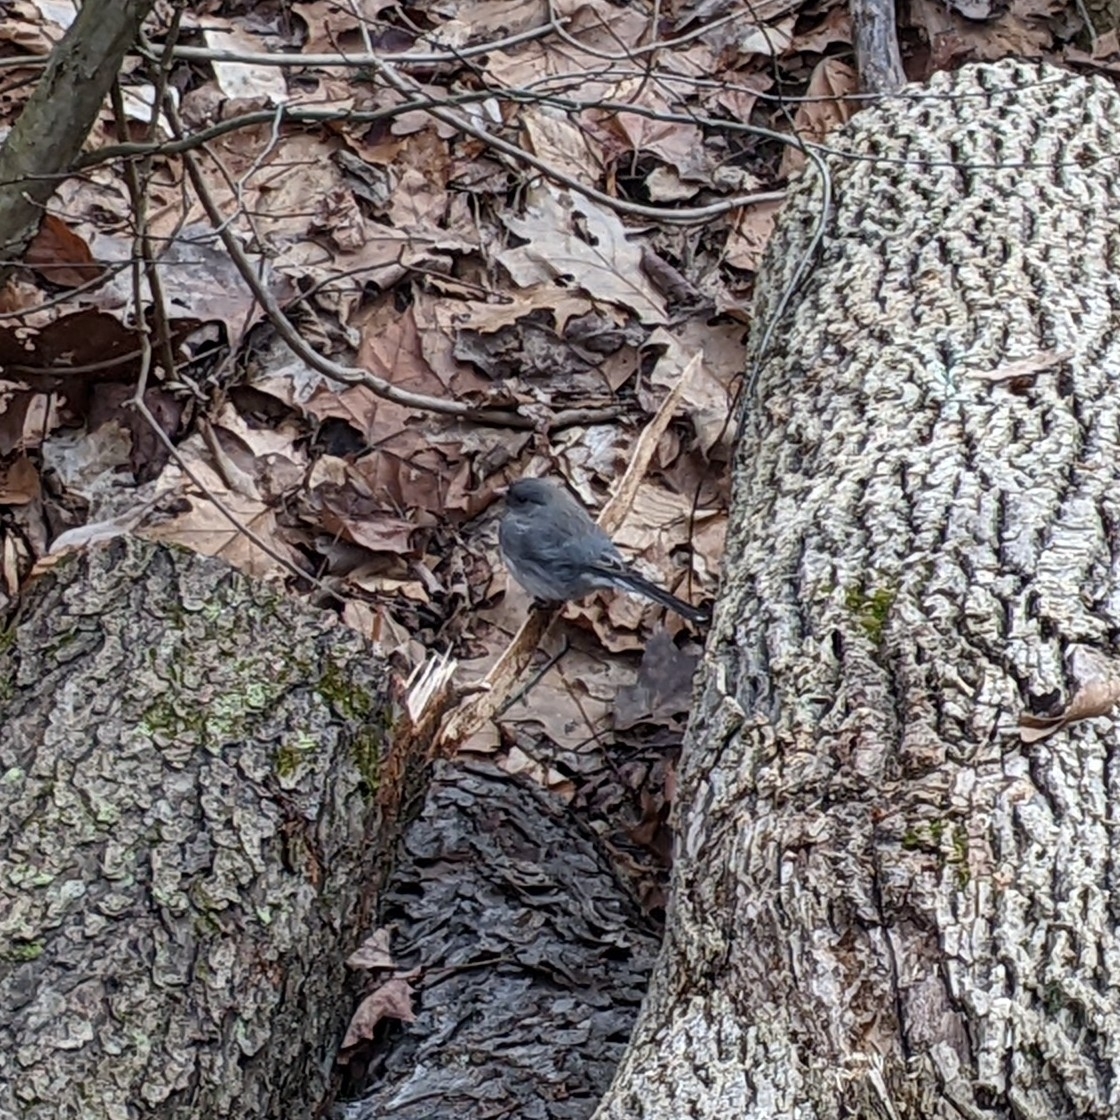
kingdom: Animalia
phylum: Chordata
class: Aves
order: Passeriformes
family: Passerellidae
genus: Junco
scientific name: Junco hyemalis
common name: Dark-eyed junco
